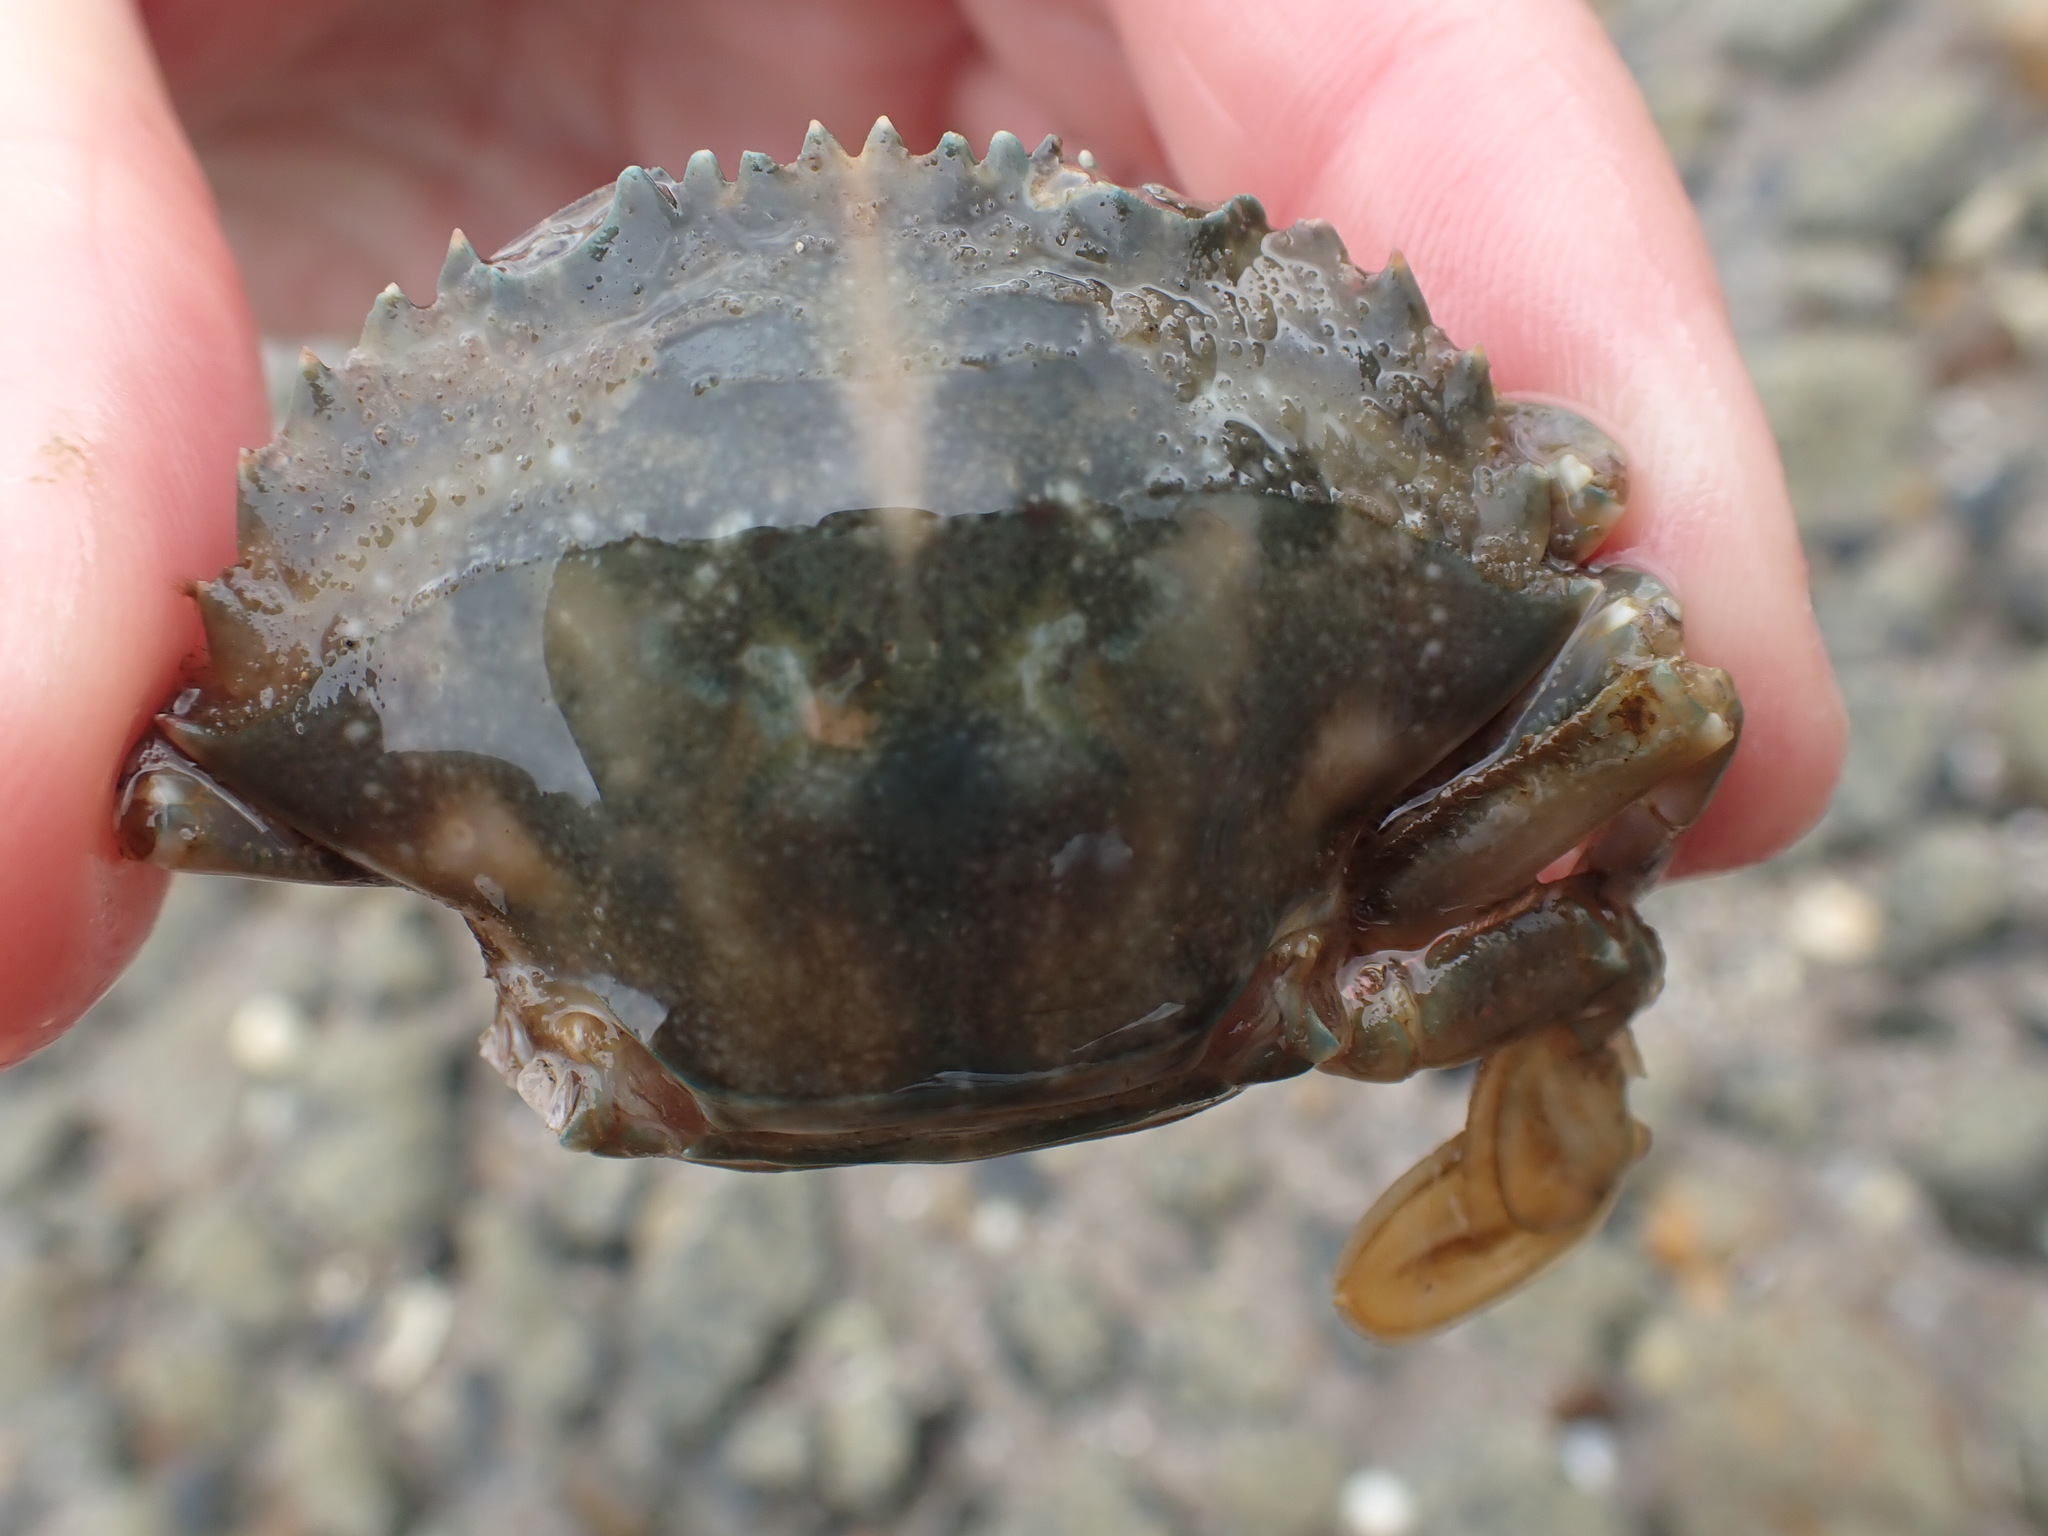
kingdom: Animalia
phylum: Arthropoda
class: Malacostraca
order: Decapoda
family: Portunidae
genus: Charybdis
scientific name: Charybdis japonica
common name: Asian paddle crab
